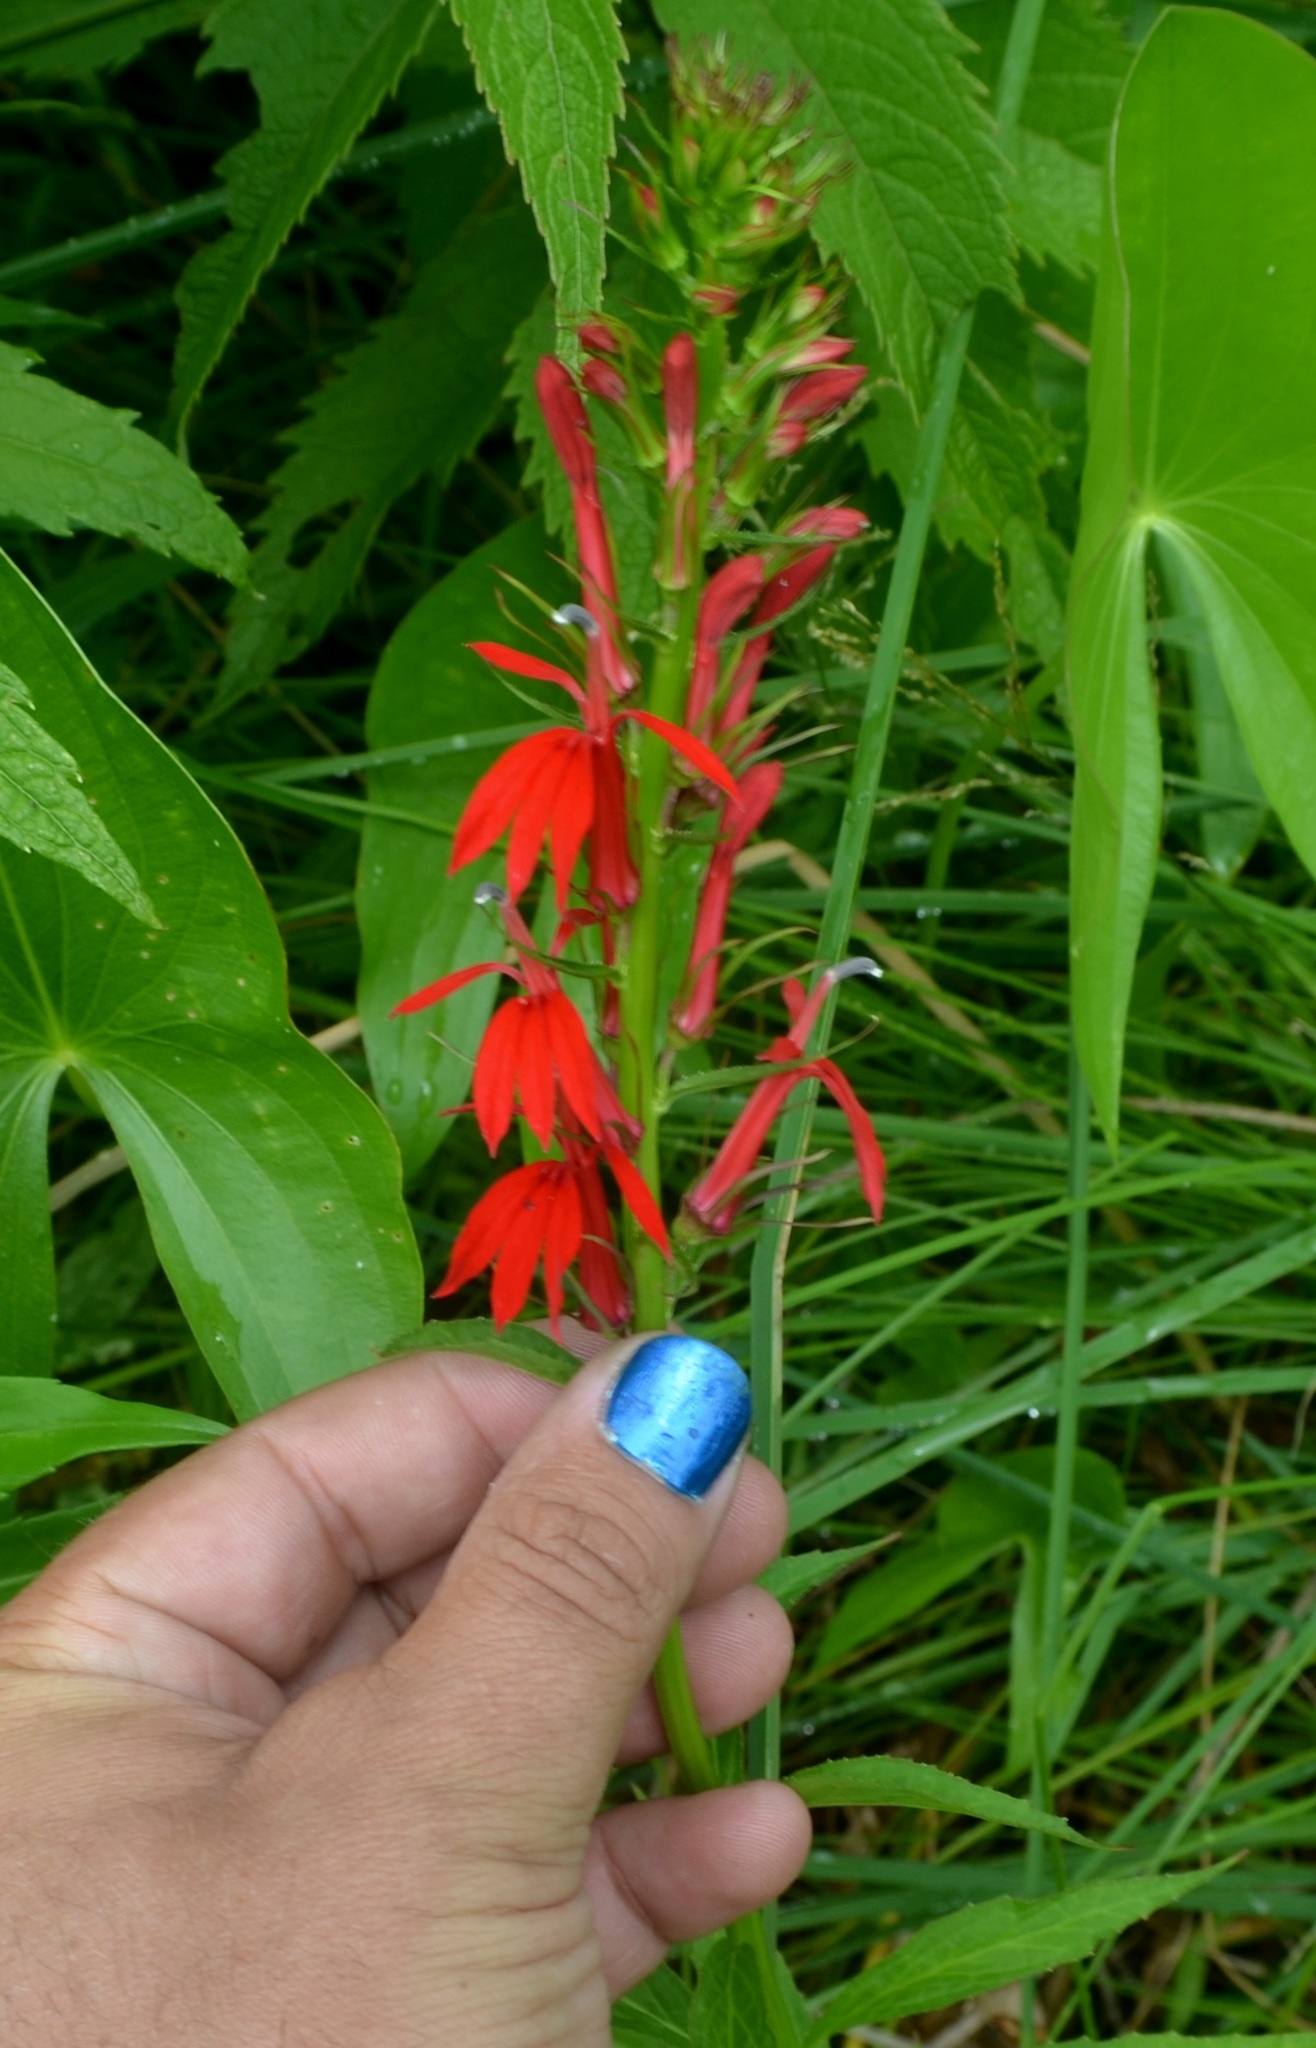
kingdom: Plantae
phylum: Tracheophyta
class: Magnoliopsida
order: Asterales
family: Campanulaceae
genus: Lobelia
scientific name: Lobelia cardinalis
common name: Cardinal flower
